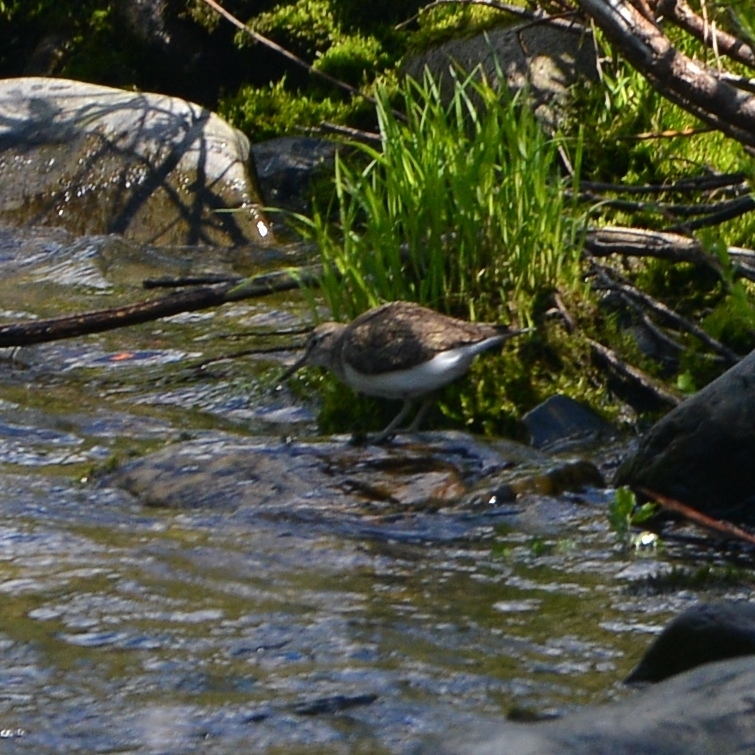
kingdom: Animalia
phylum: Chordata
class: Aves
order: Charadriiformes
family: Scolopacidae
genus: Actitis
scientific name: Actitis hypoleucos
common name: Common sandpiper
